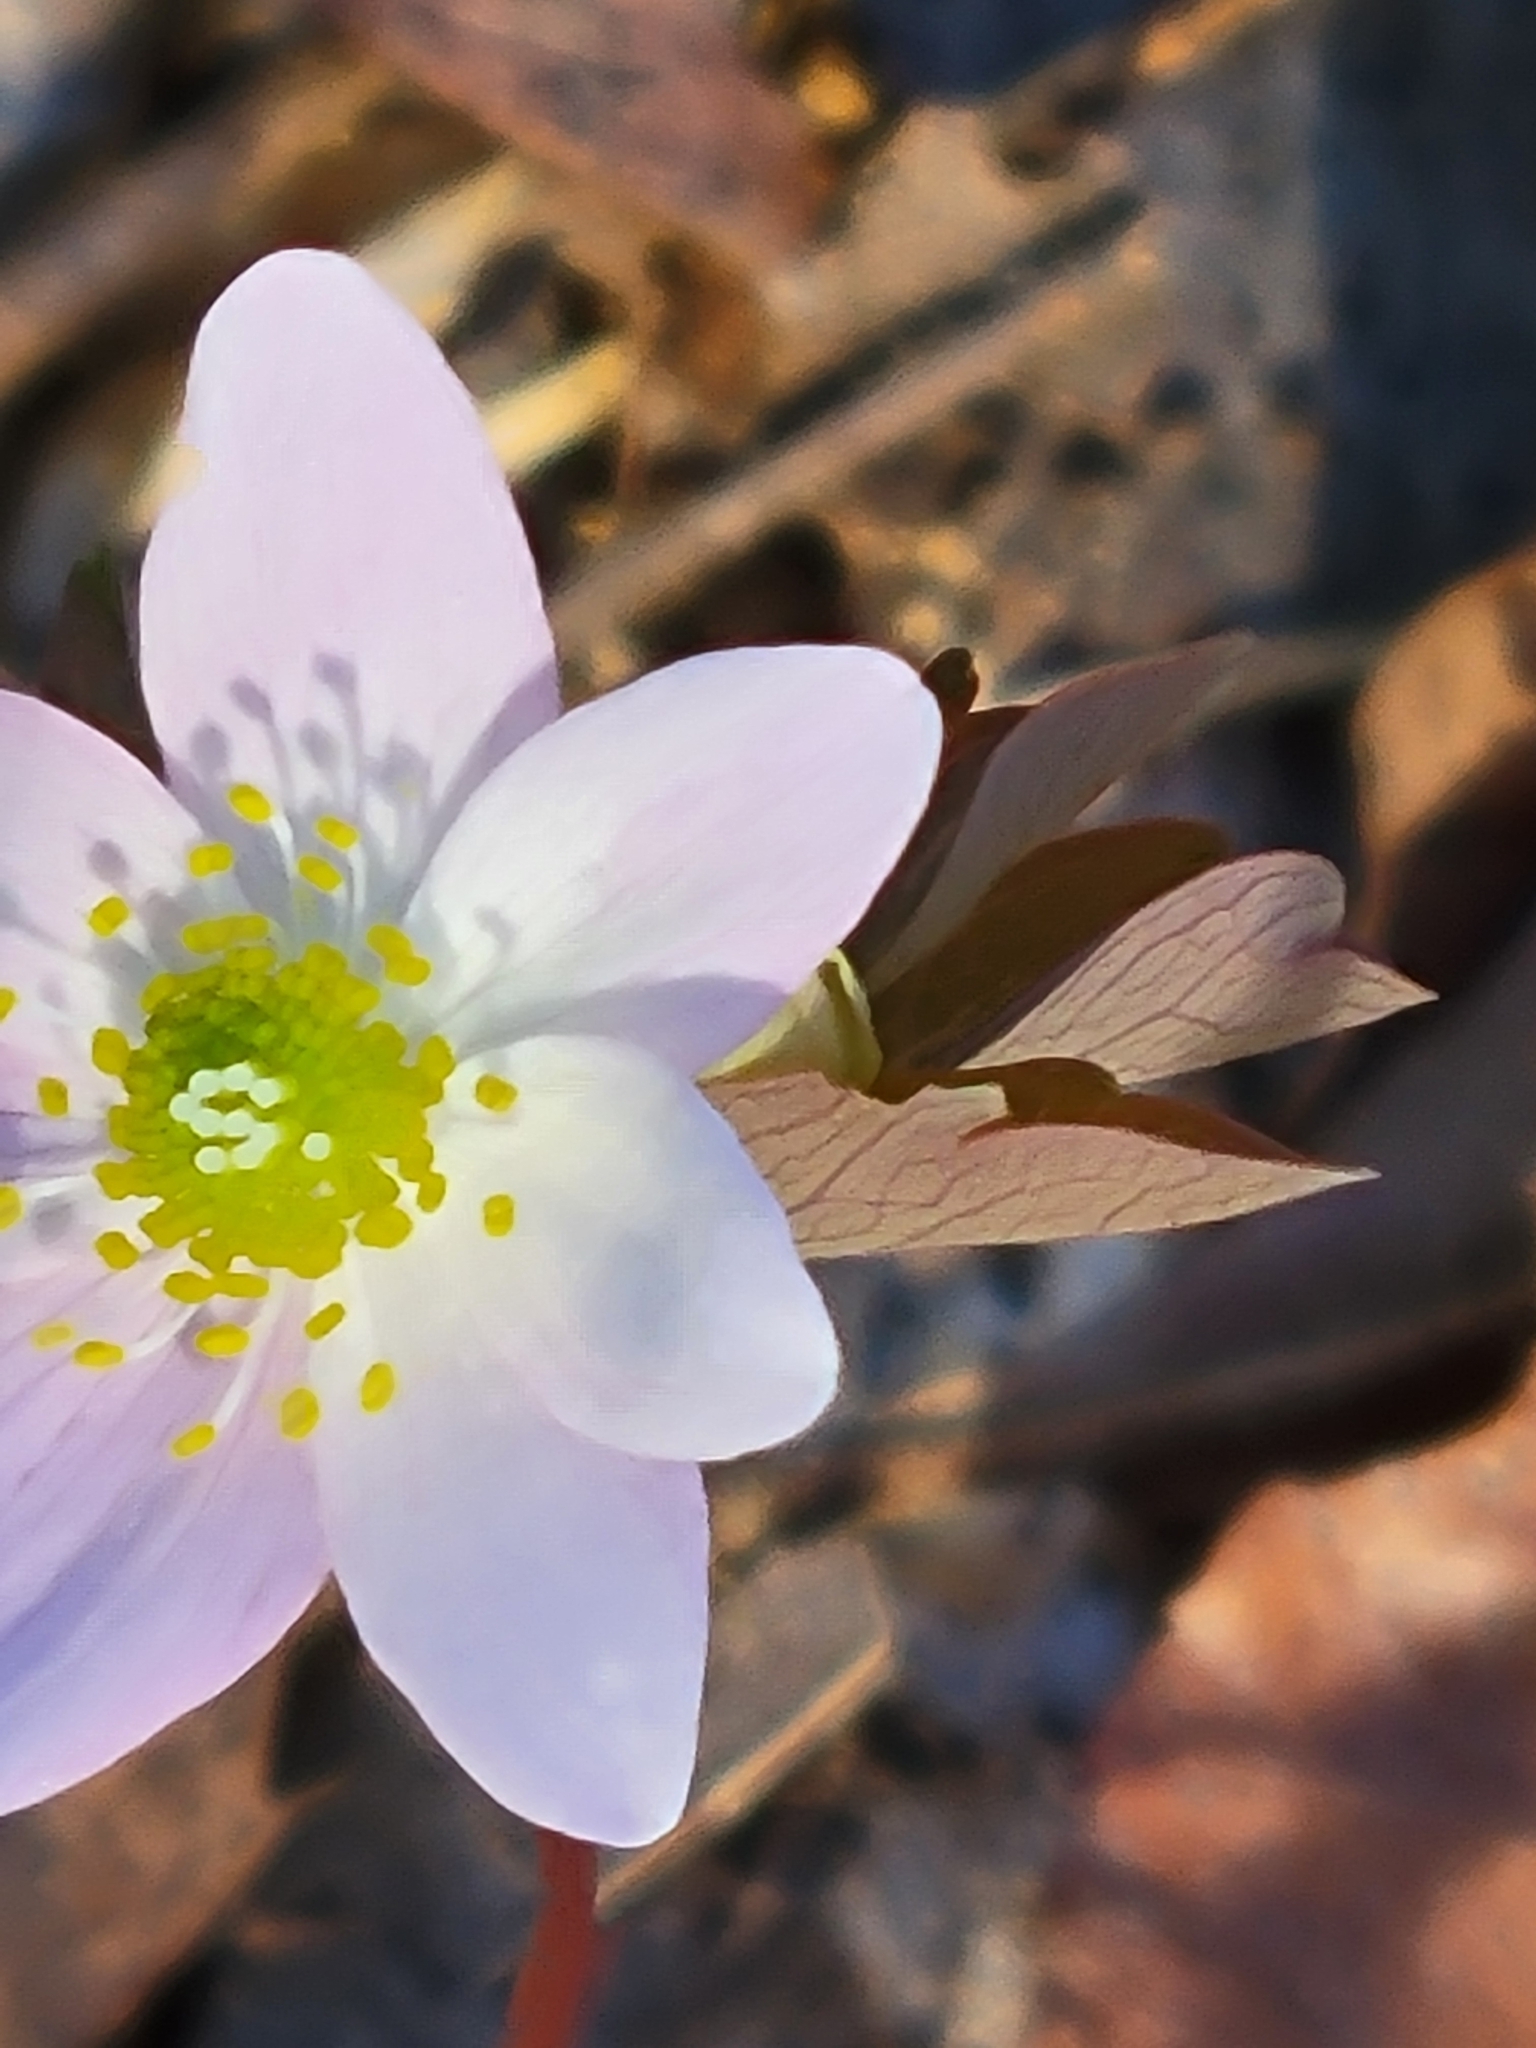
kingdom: Plantae
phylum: Tracheophyta
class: Magnoliopsida
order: Ranunculales
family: Ranunculaceae
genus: Thalictrum
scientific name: Thalictrum thalictroides
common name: Rue-anemone
